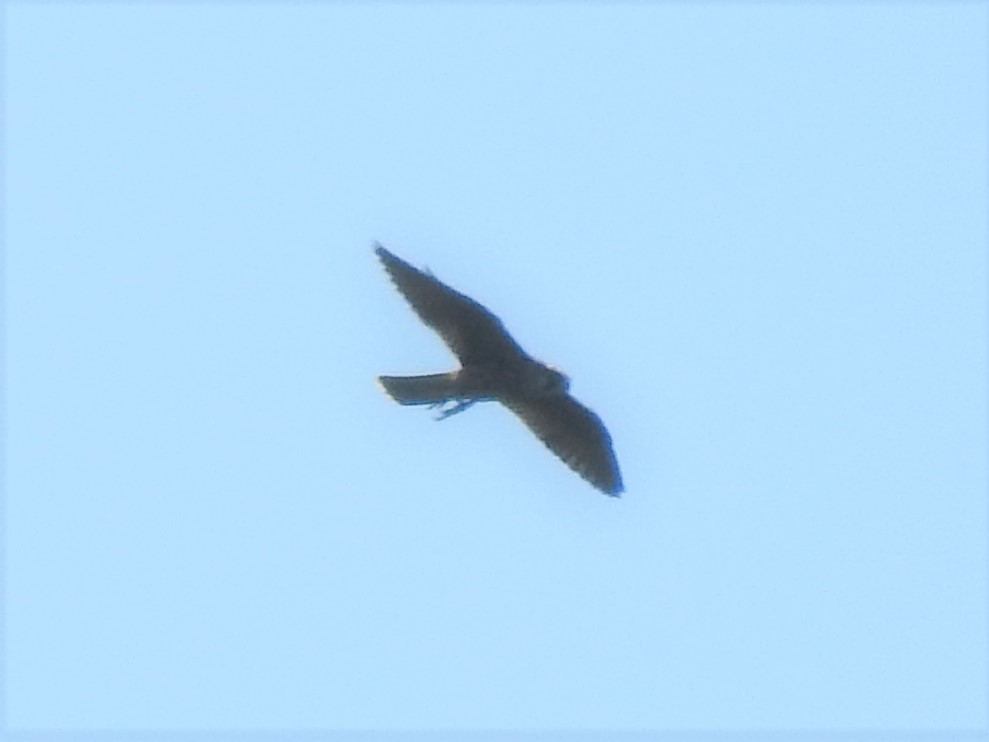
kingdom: Animalia
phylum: Chordata
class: Aves
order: Falconiformes
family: Falconidae
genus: Falco
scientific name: Falco peregrinus
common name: Peregrine falcon
